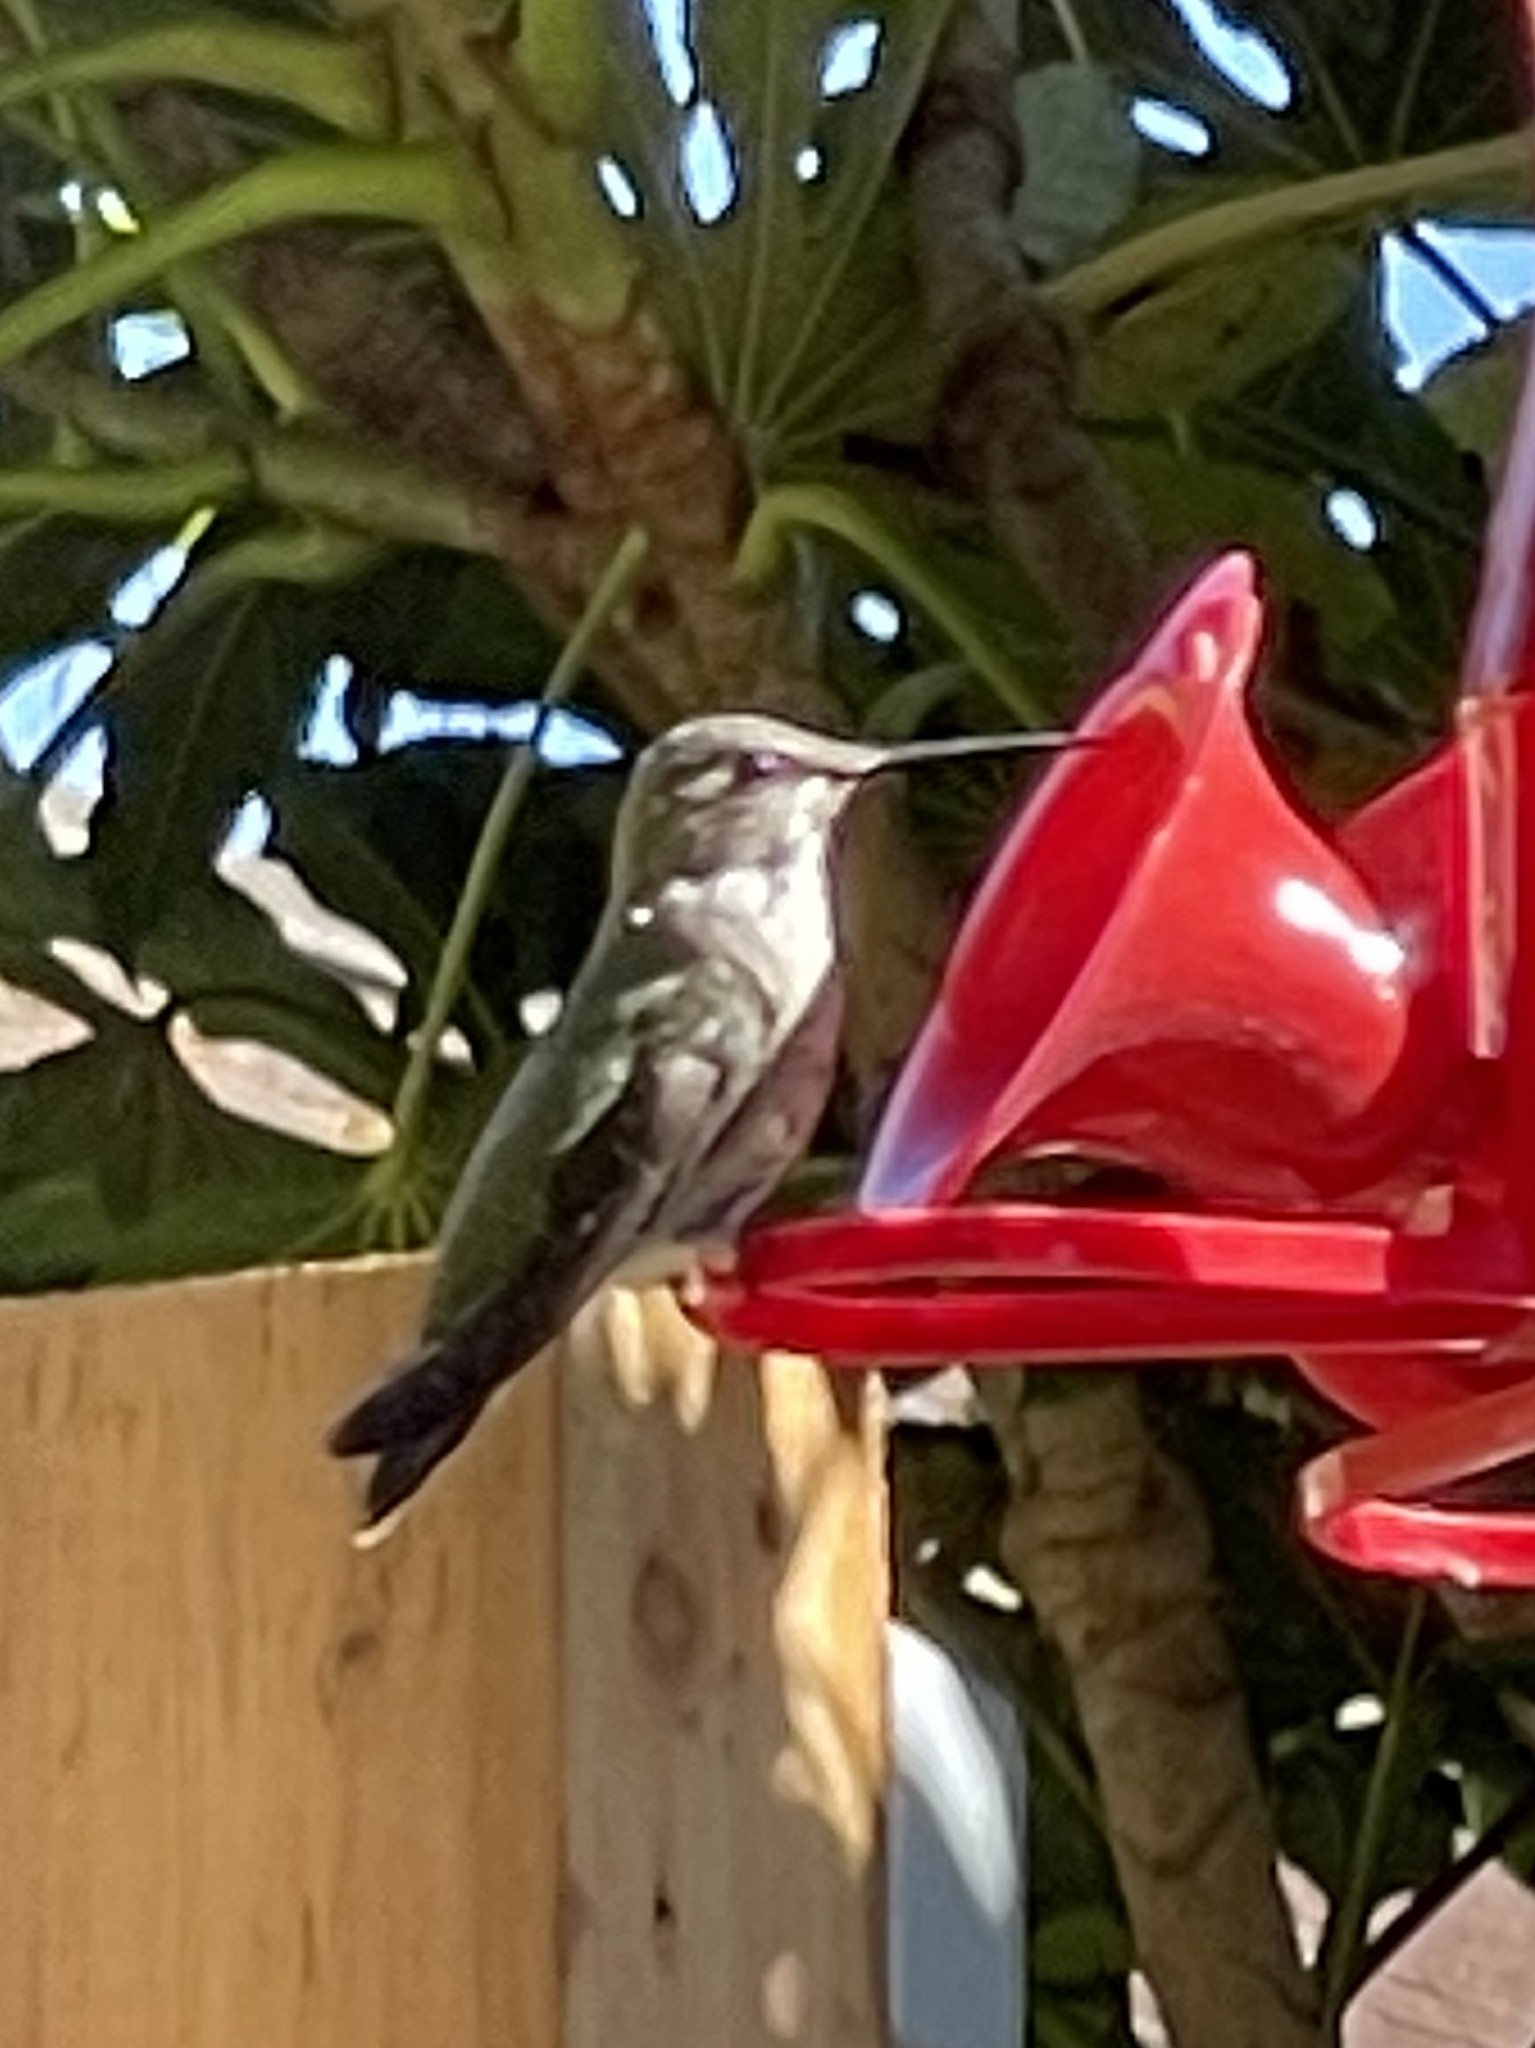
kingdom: Animalia
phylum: Chordata
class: Aves
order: Apodiformes
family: Trochilidae
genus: Calypte
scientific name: Calypte anna
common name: Anna's hummingbird
